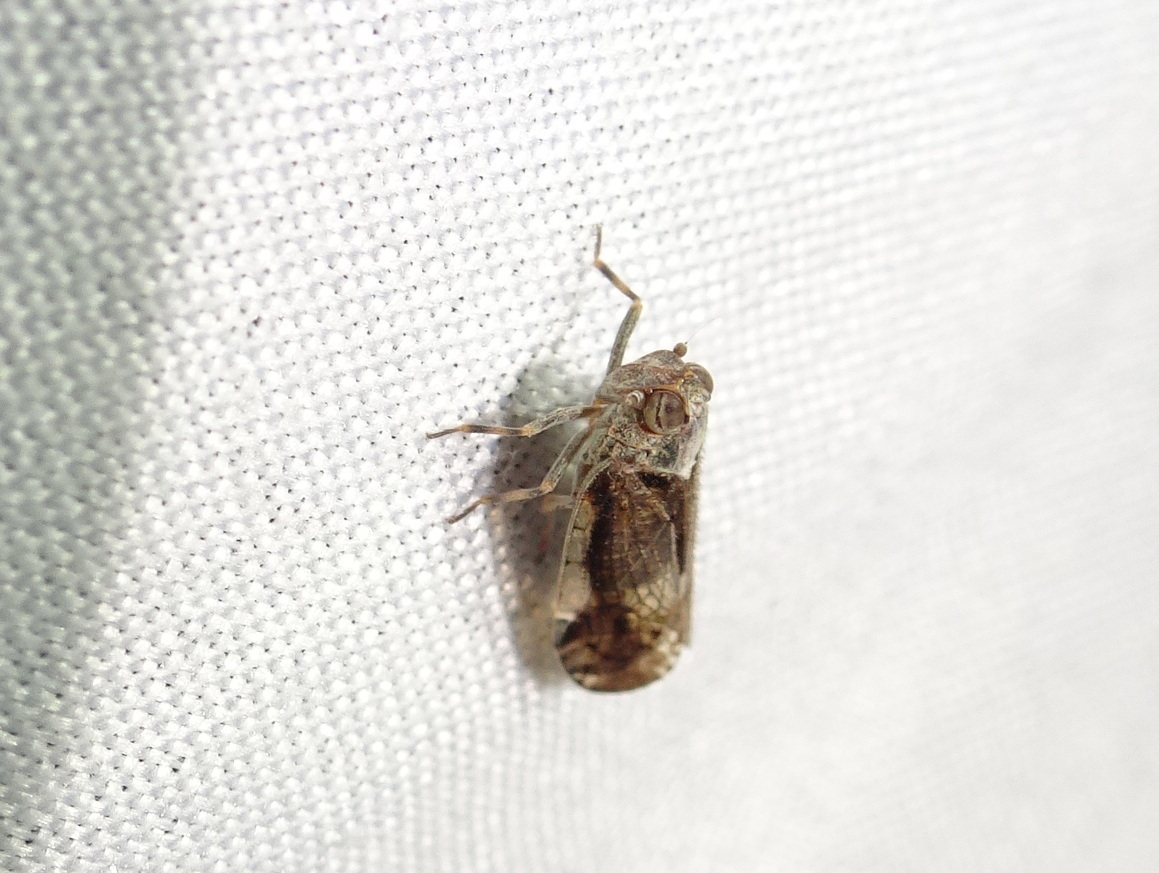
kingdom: Animalia
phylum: Arthropoda
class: Insecta
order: Hemiptera
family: Cixiidae
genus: Melanoliarus
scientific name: Melanoliarus placitus
